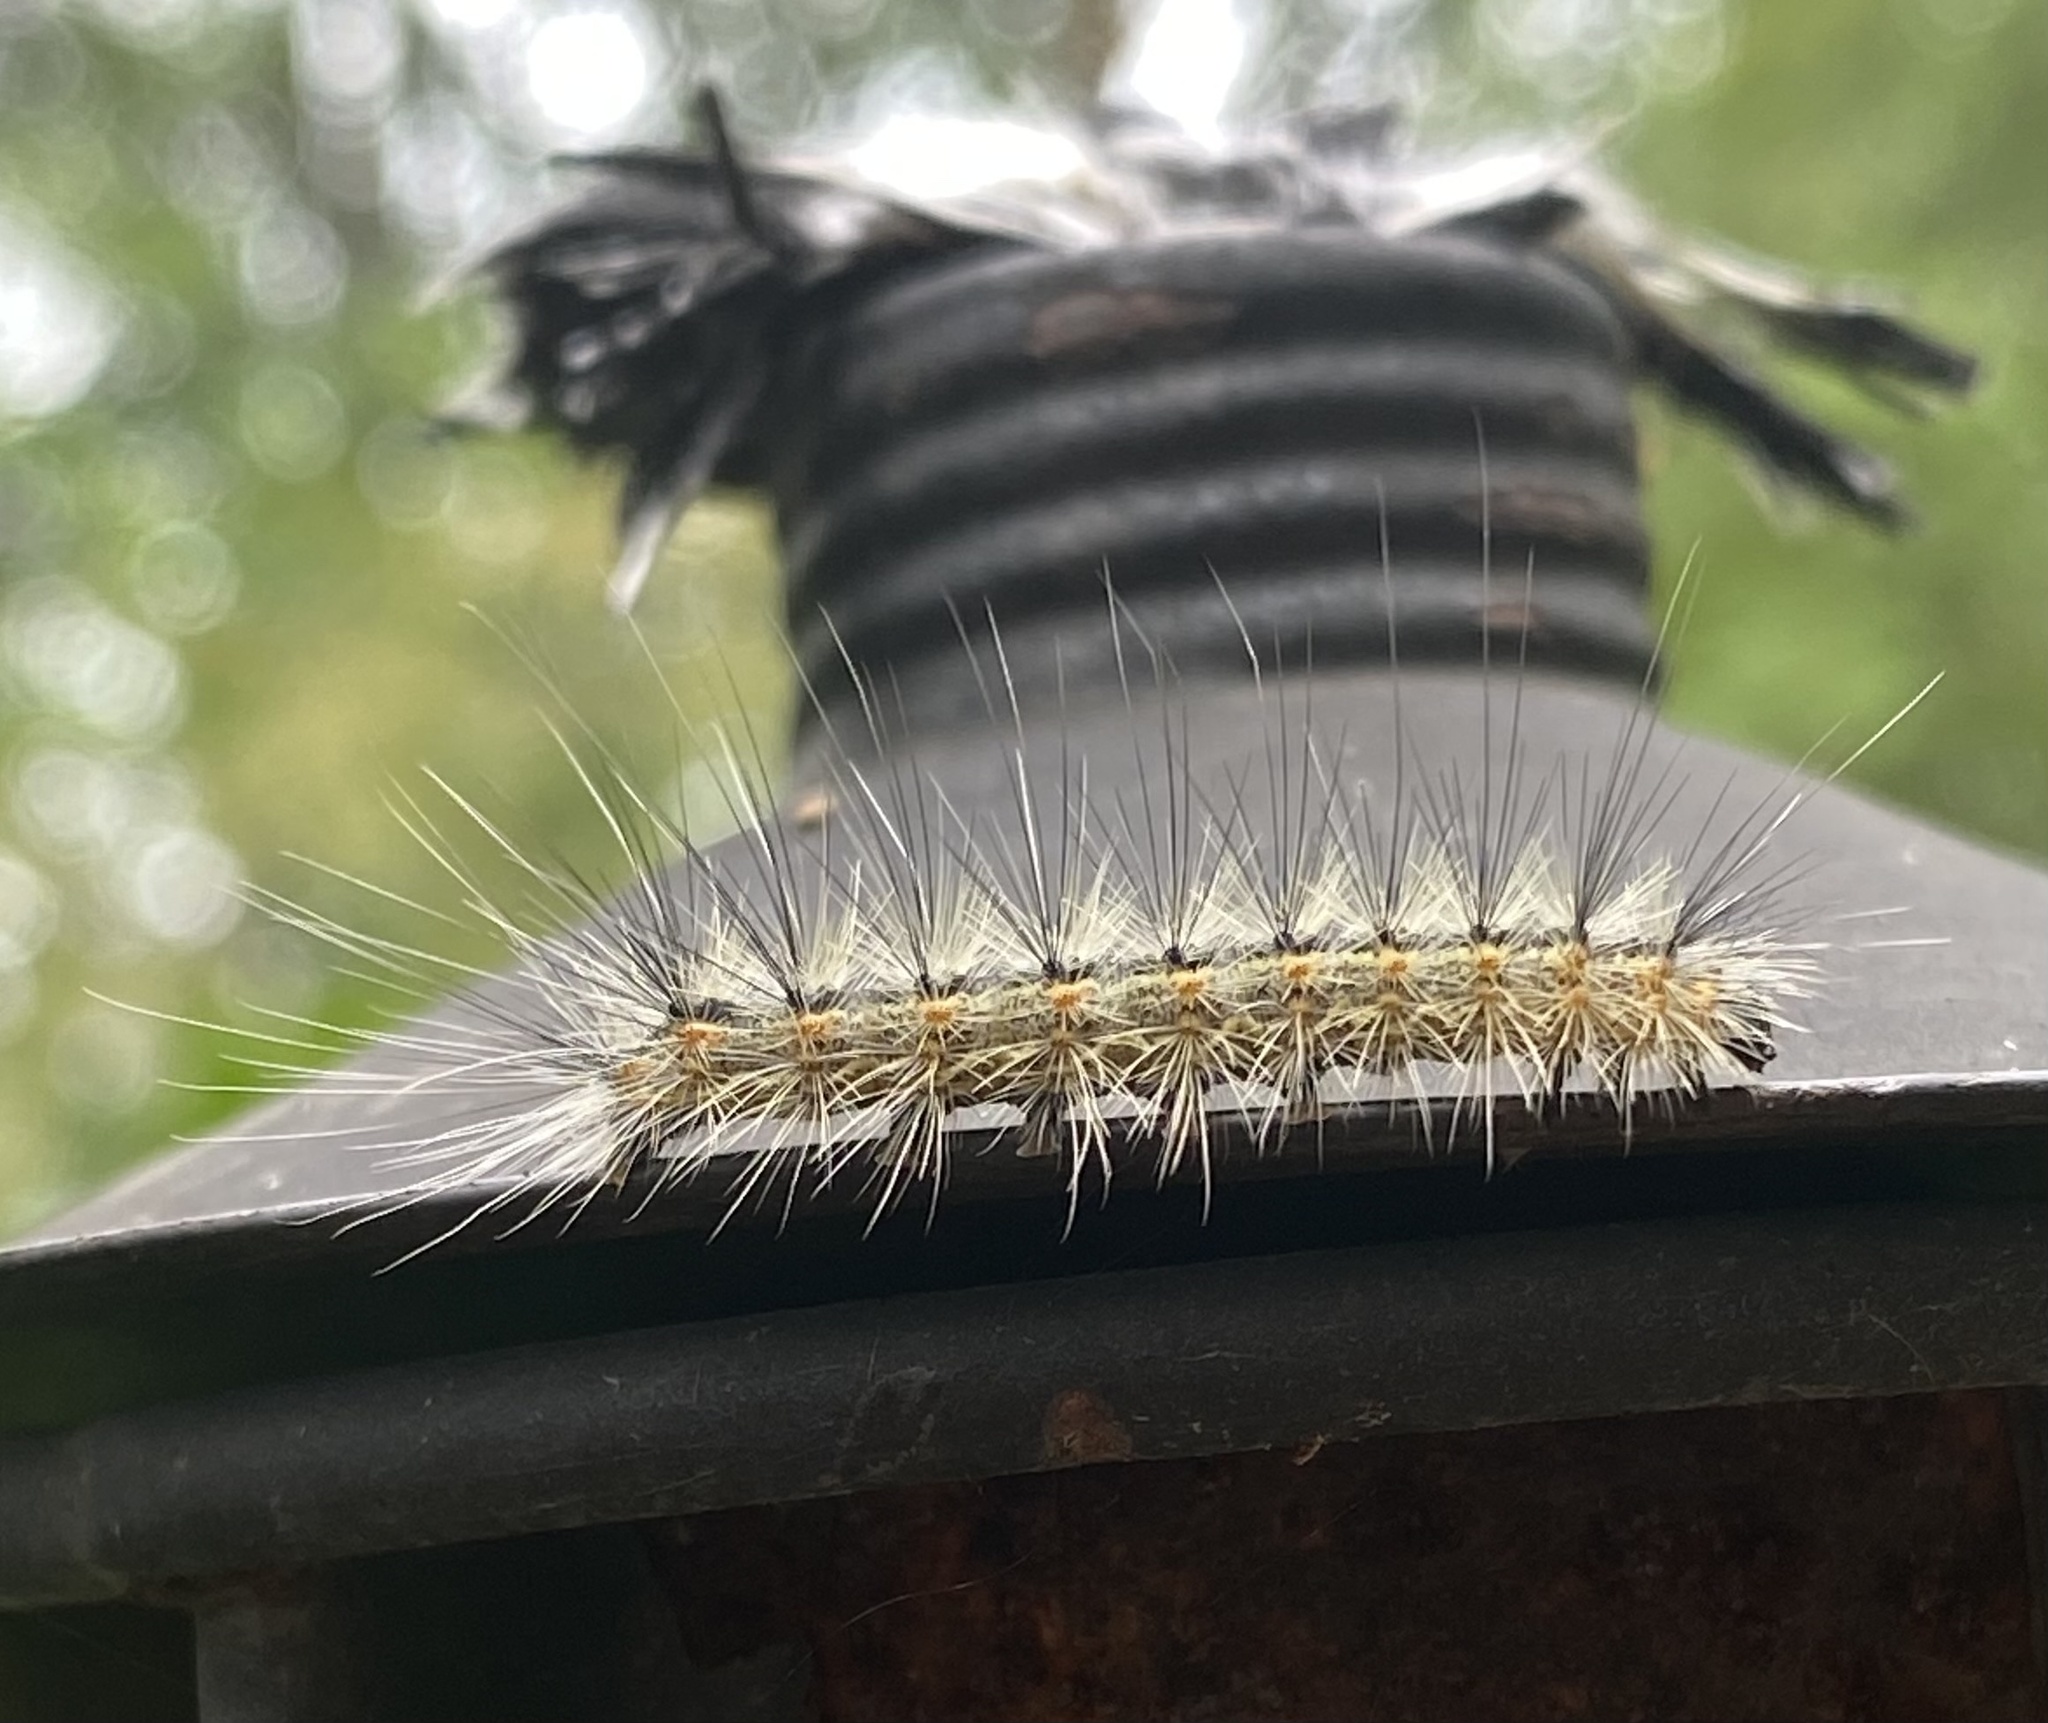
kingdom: Animalia
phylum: Arthropoda
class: Insecta
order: Lepidoptera
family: Erebidae
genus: Hyphantria
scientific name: Hyphantria cunea
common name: American white moth
